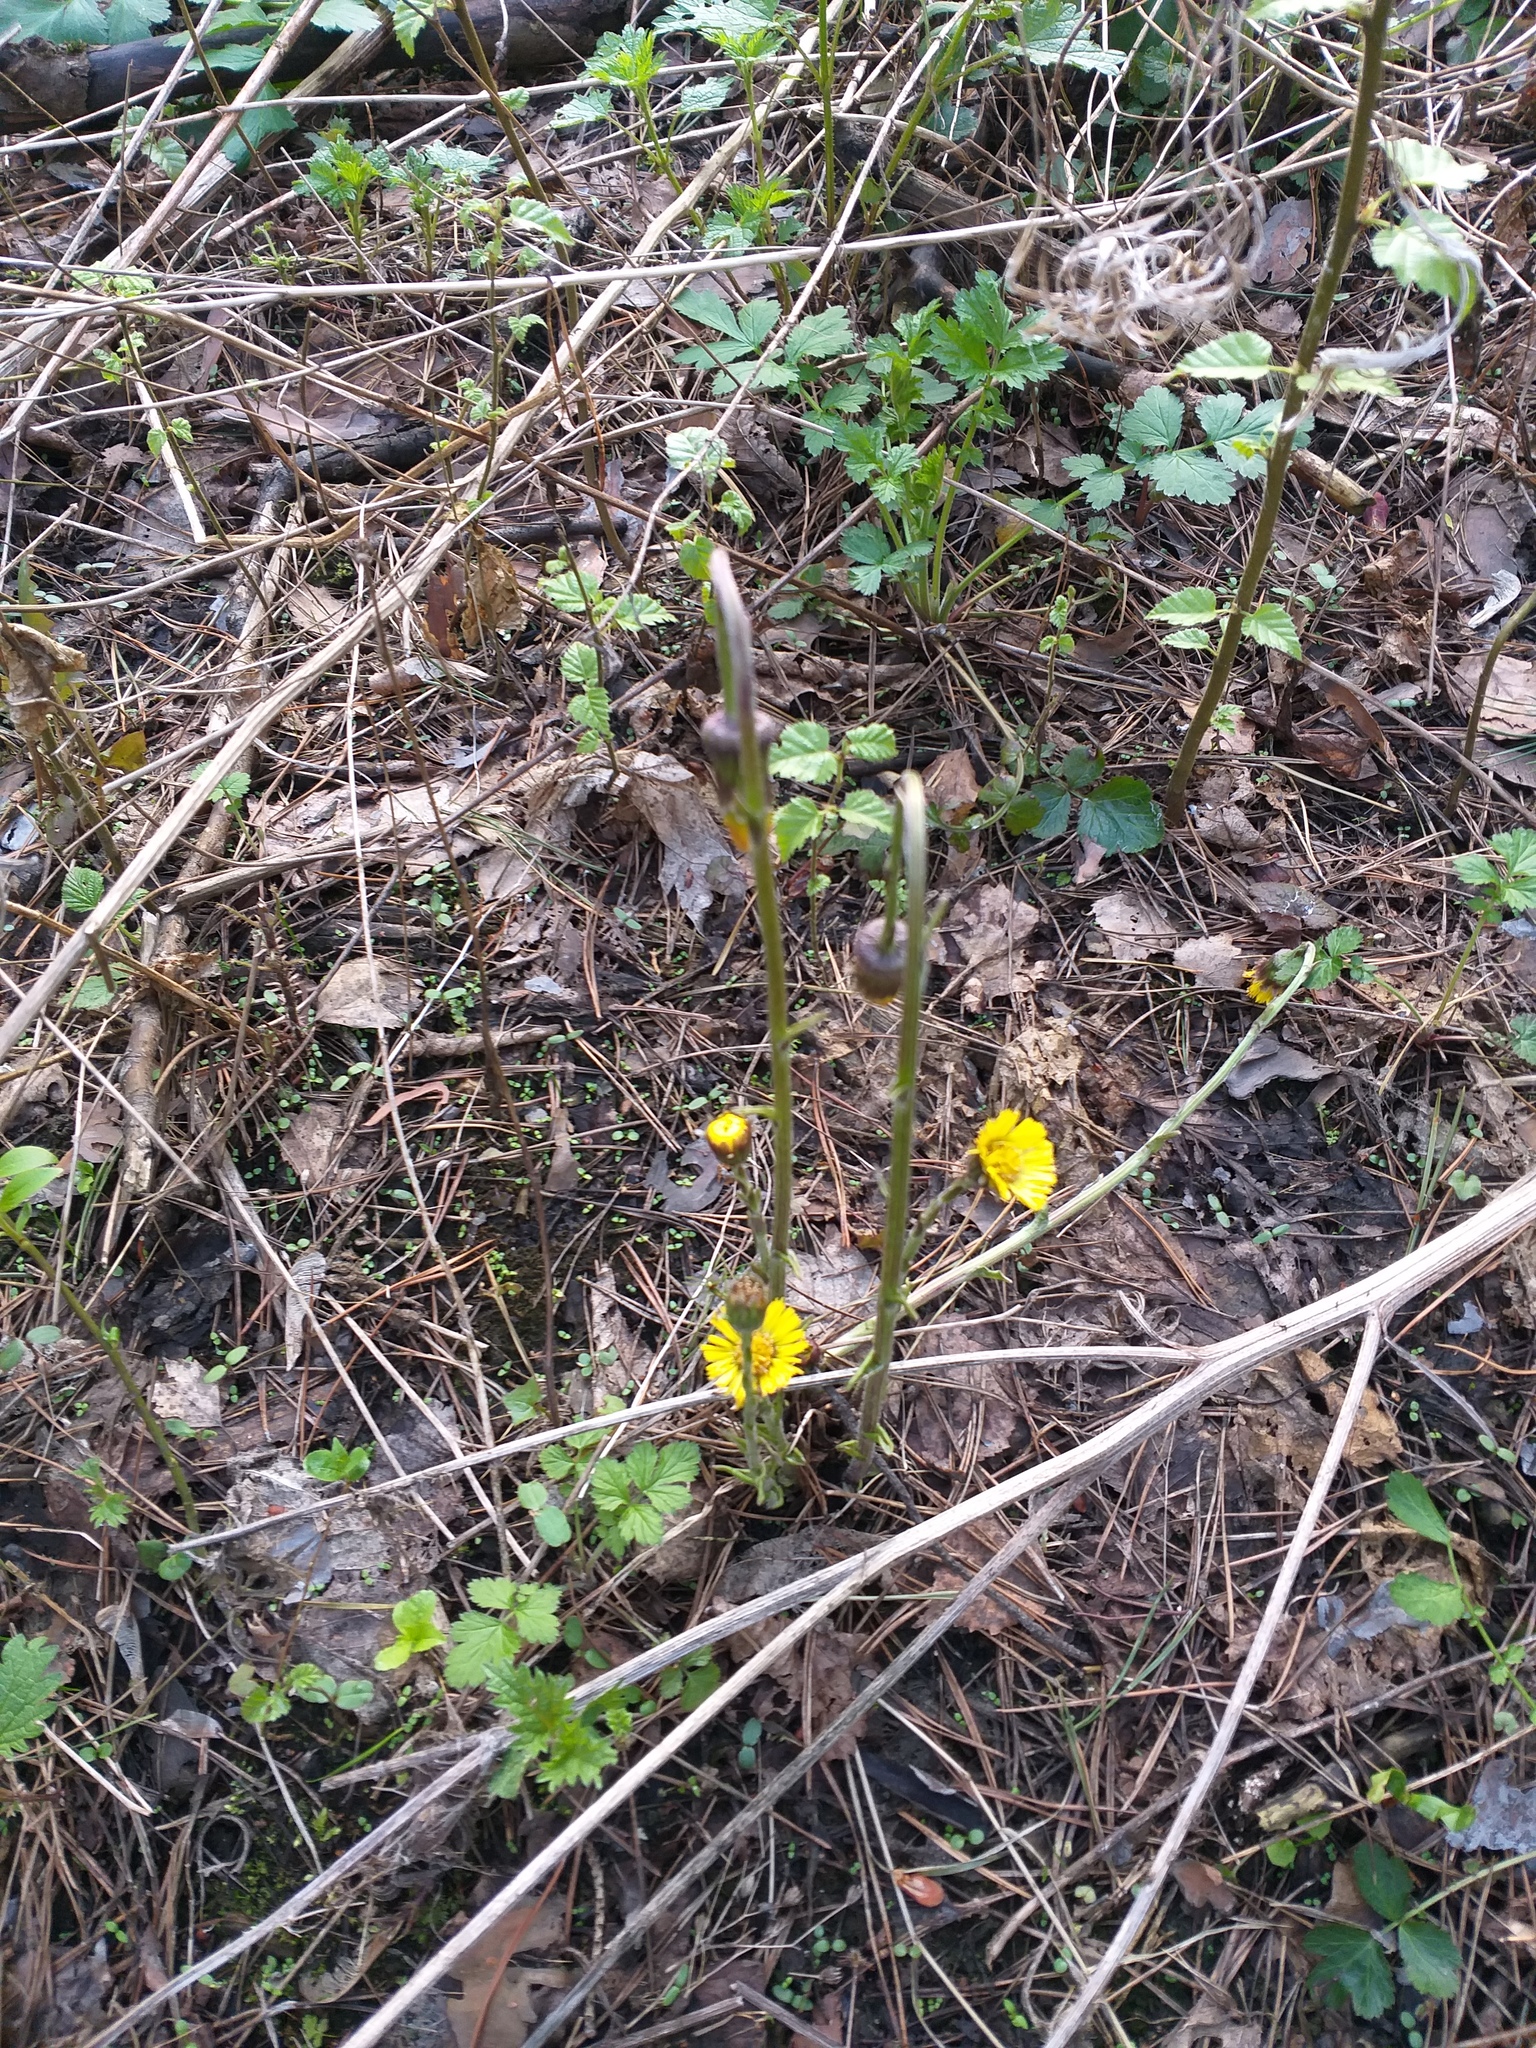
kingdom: Plantae
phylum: Tracheophyta
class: Magnoliopsida
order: Asterales
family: Asteraceae
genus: Tussilago
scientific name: Tussilago farfara
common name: Coltsfoot
